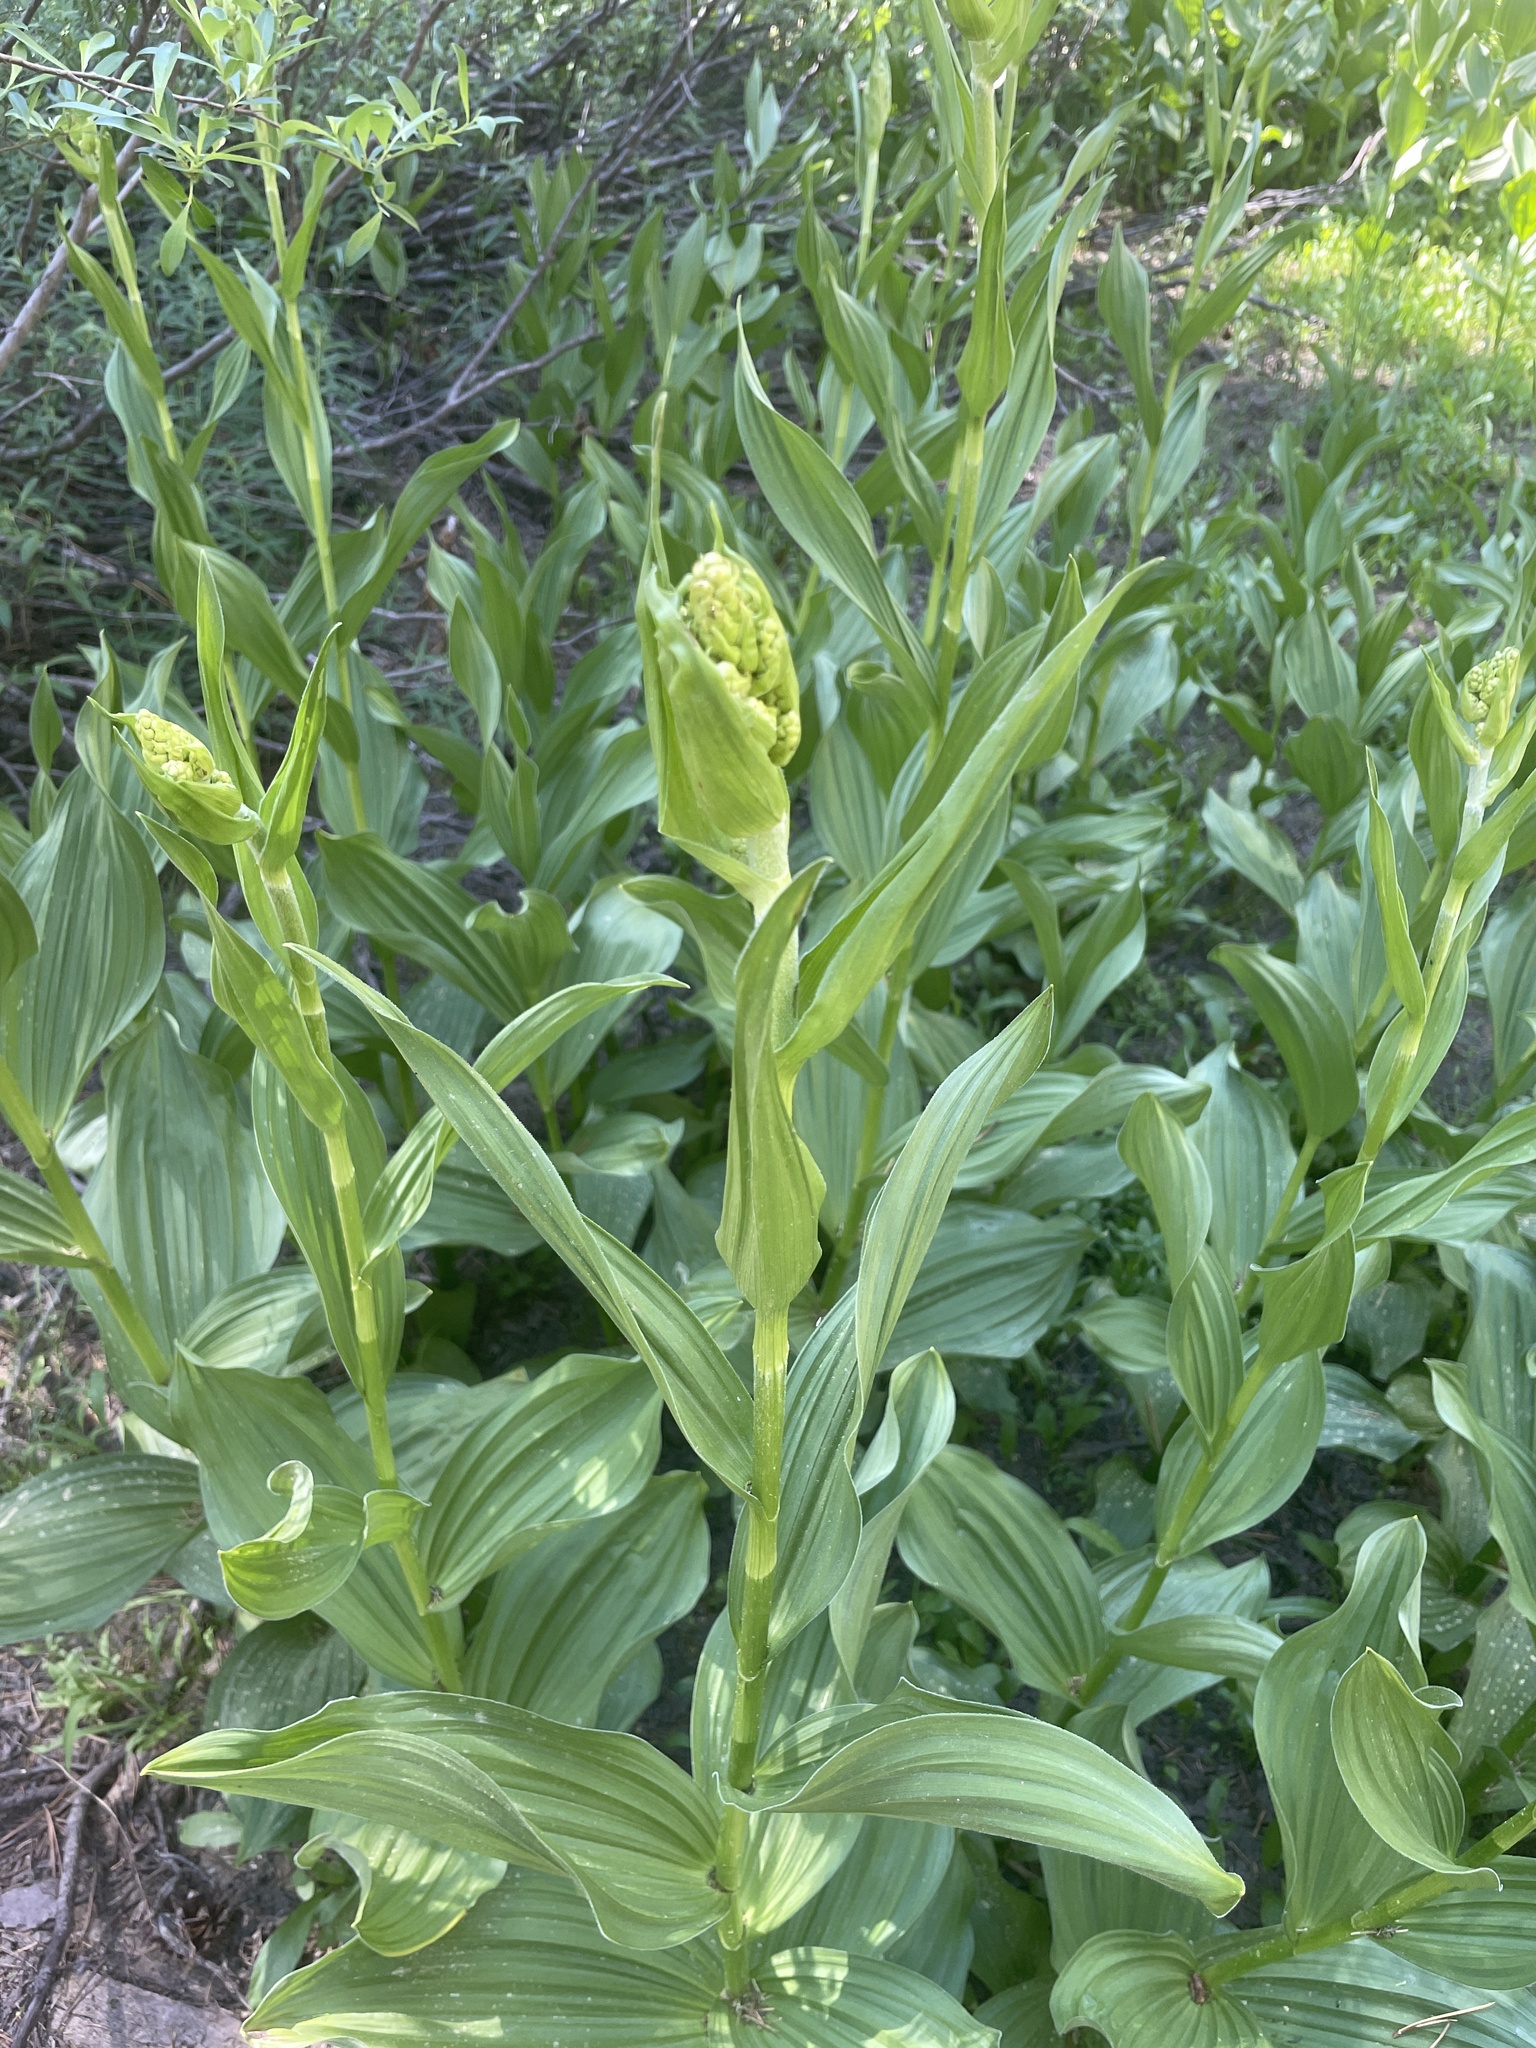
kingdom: Plantae
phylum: Tracheophyta
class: Liliopsida
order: Liliales
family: Melanthiaceae
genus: Veratrum
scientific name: Veratrum californicum
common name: California veratrum
